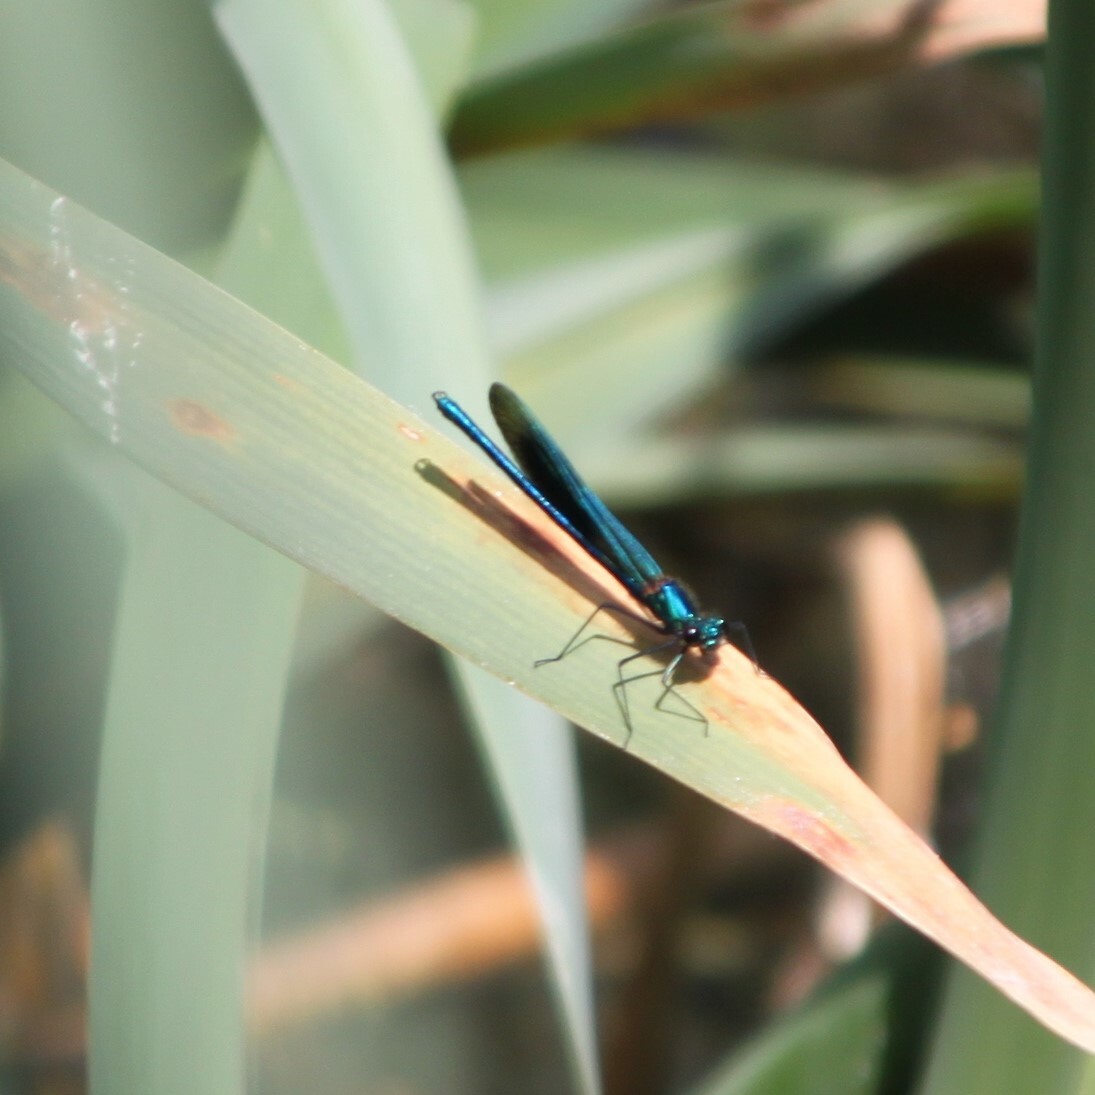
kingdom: Animalia
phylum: Arthropoda
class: Insecta
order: Odonata
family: Calopterygidae
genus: Calopteryx
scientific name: Calopteryx splendens
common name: Banded demoiselle
